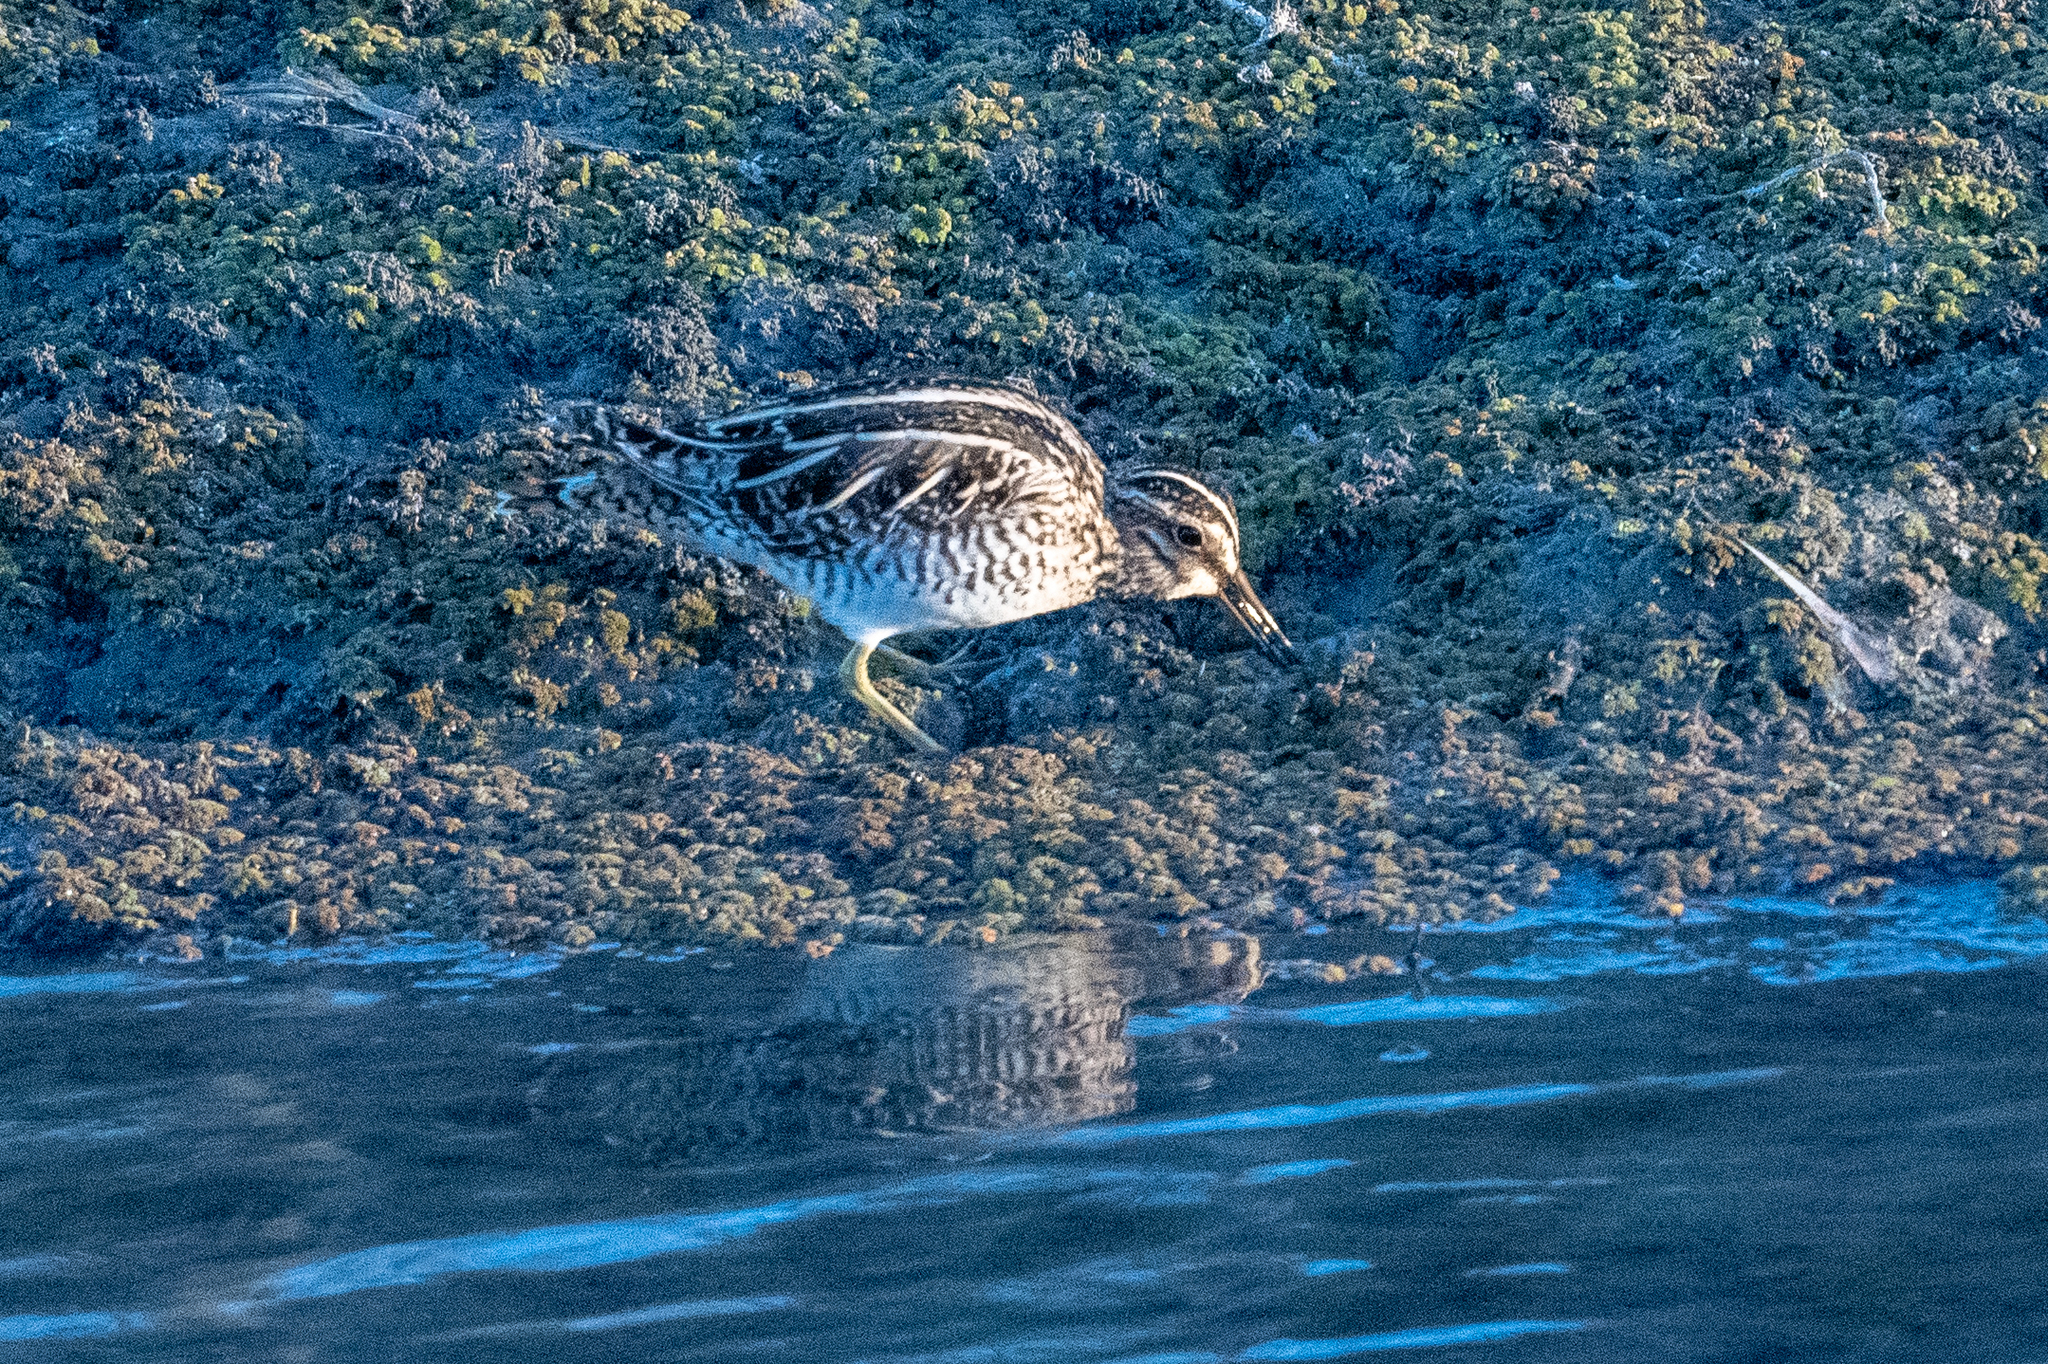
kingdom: Animalia
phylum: Chordata
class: Aves
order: Charadriiformes
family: Scolopacidae
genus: Gallinago
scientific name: Gallinago delicata
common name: Wilson's snipe
